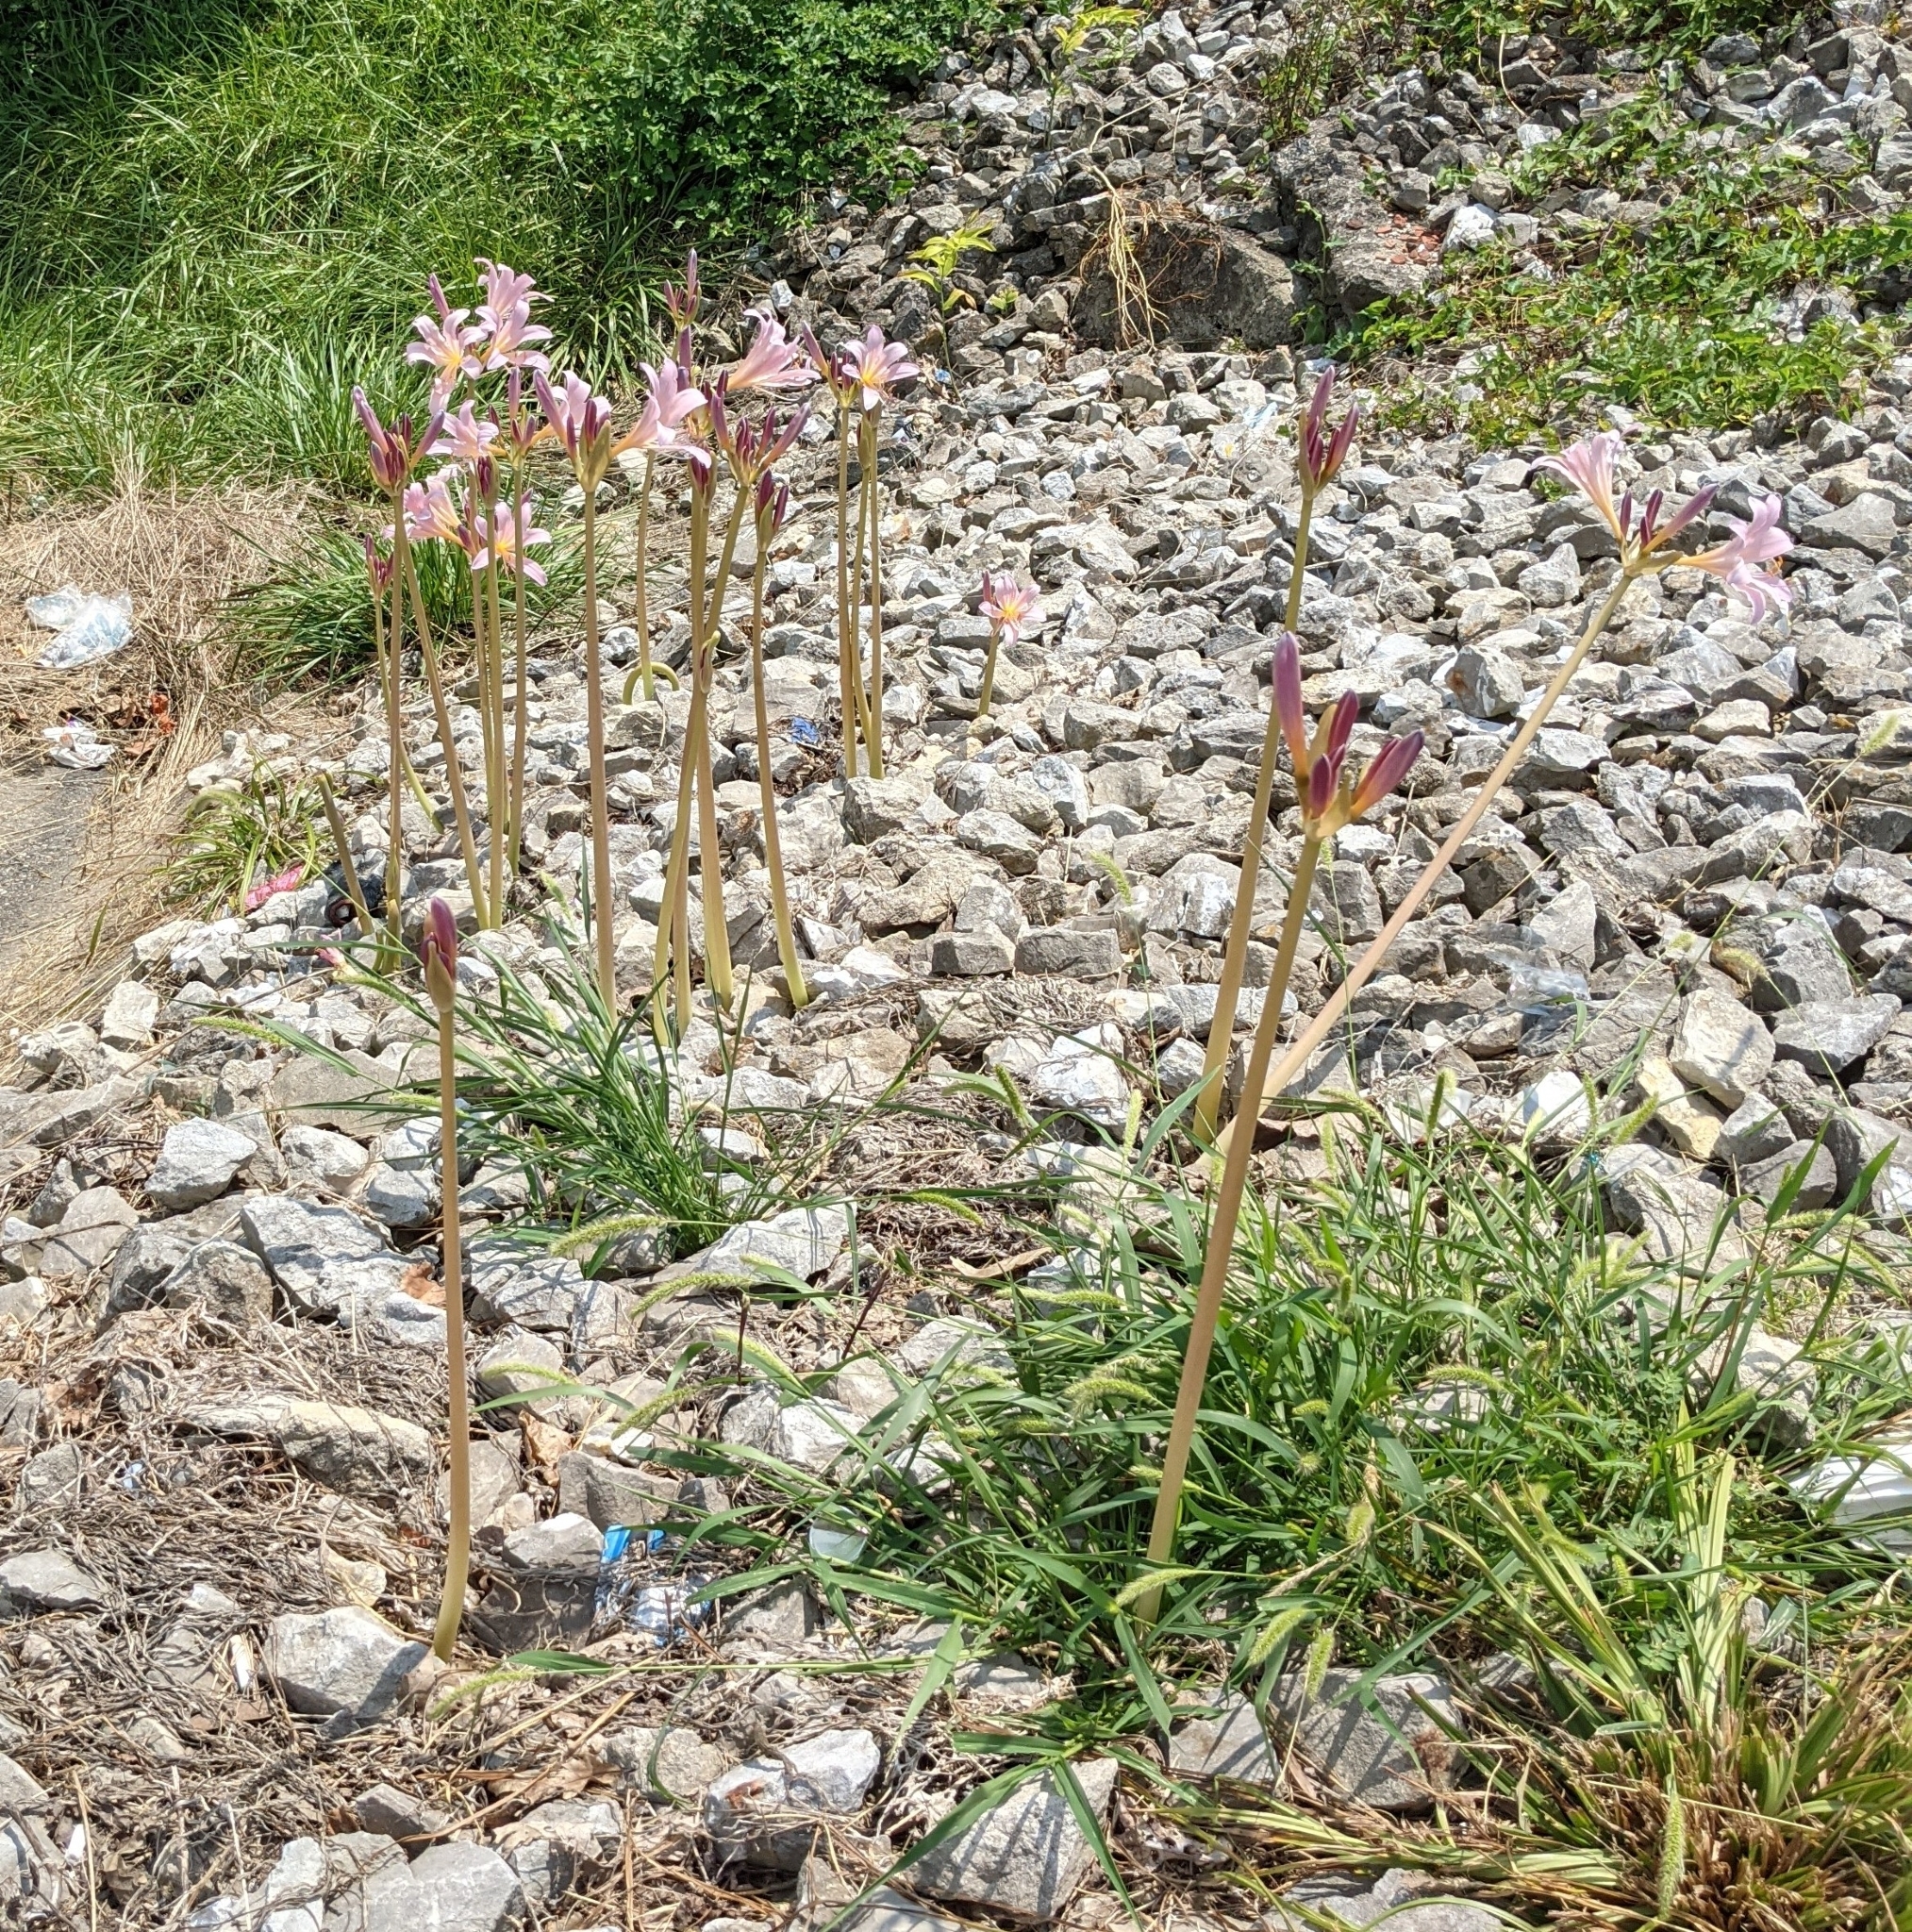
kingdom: Plantae
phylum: Tracheophyta
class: Liliopsida
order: Asparagales
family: Amaryllidaceae
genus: Lycoris
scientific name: Lycoris squamigera
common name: Magic-lily
